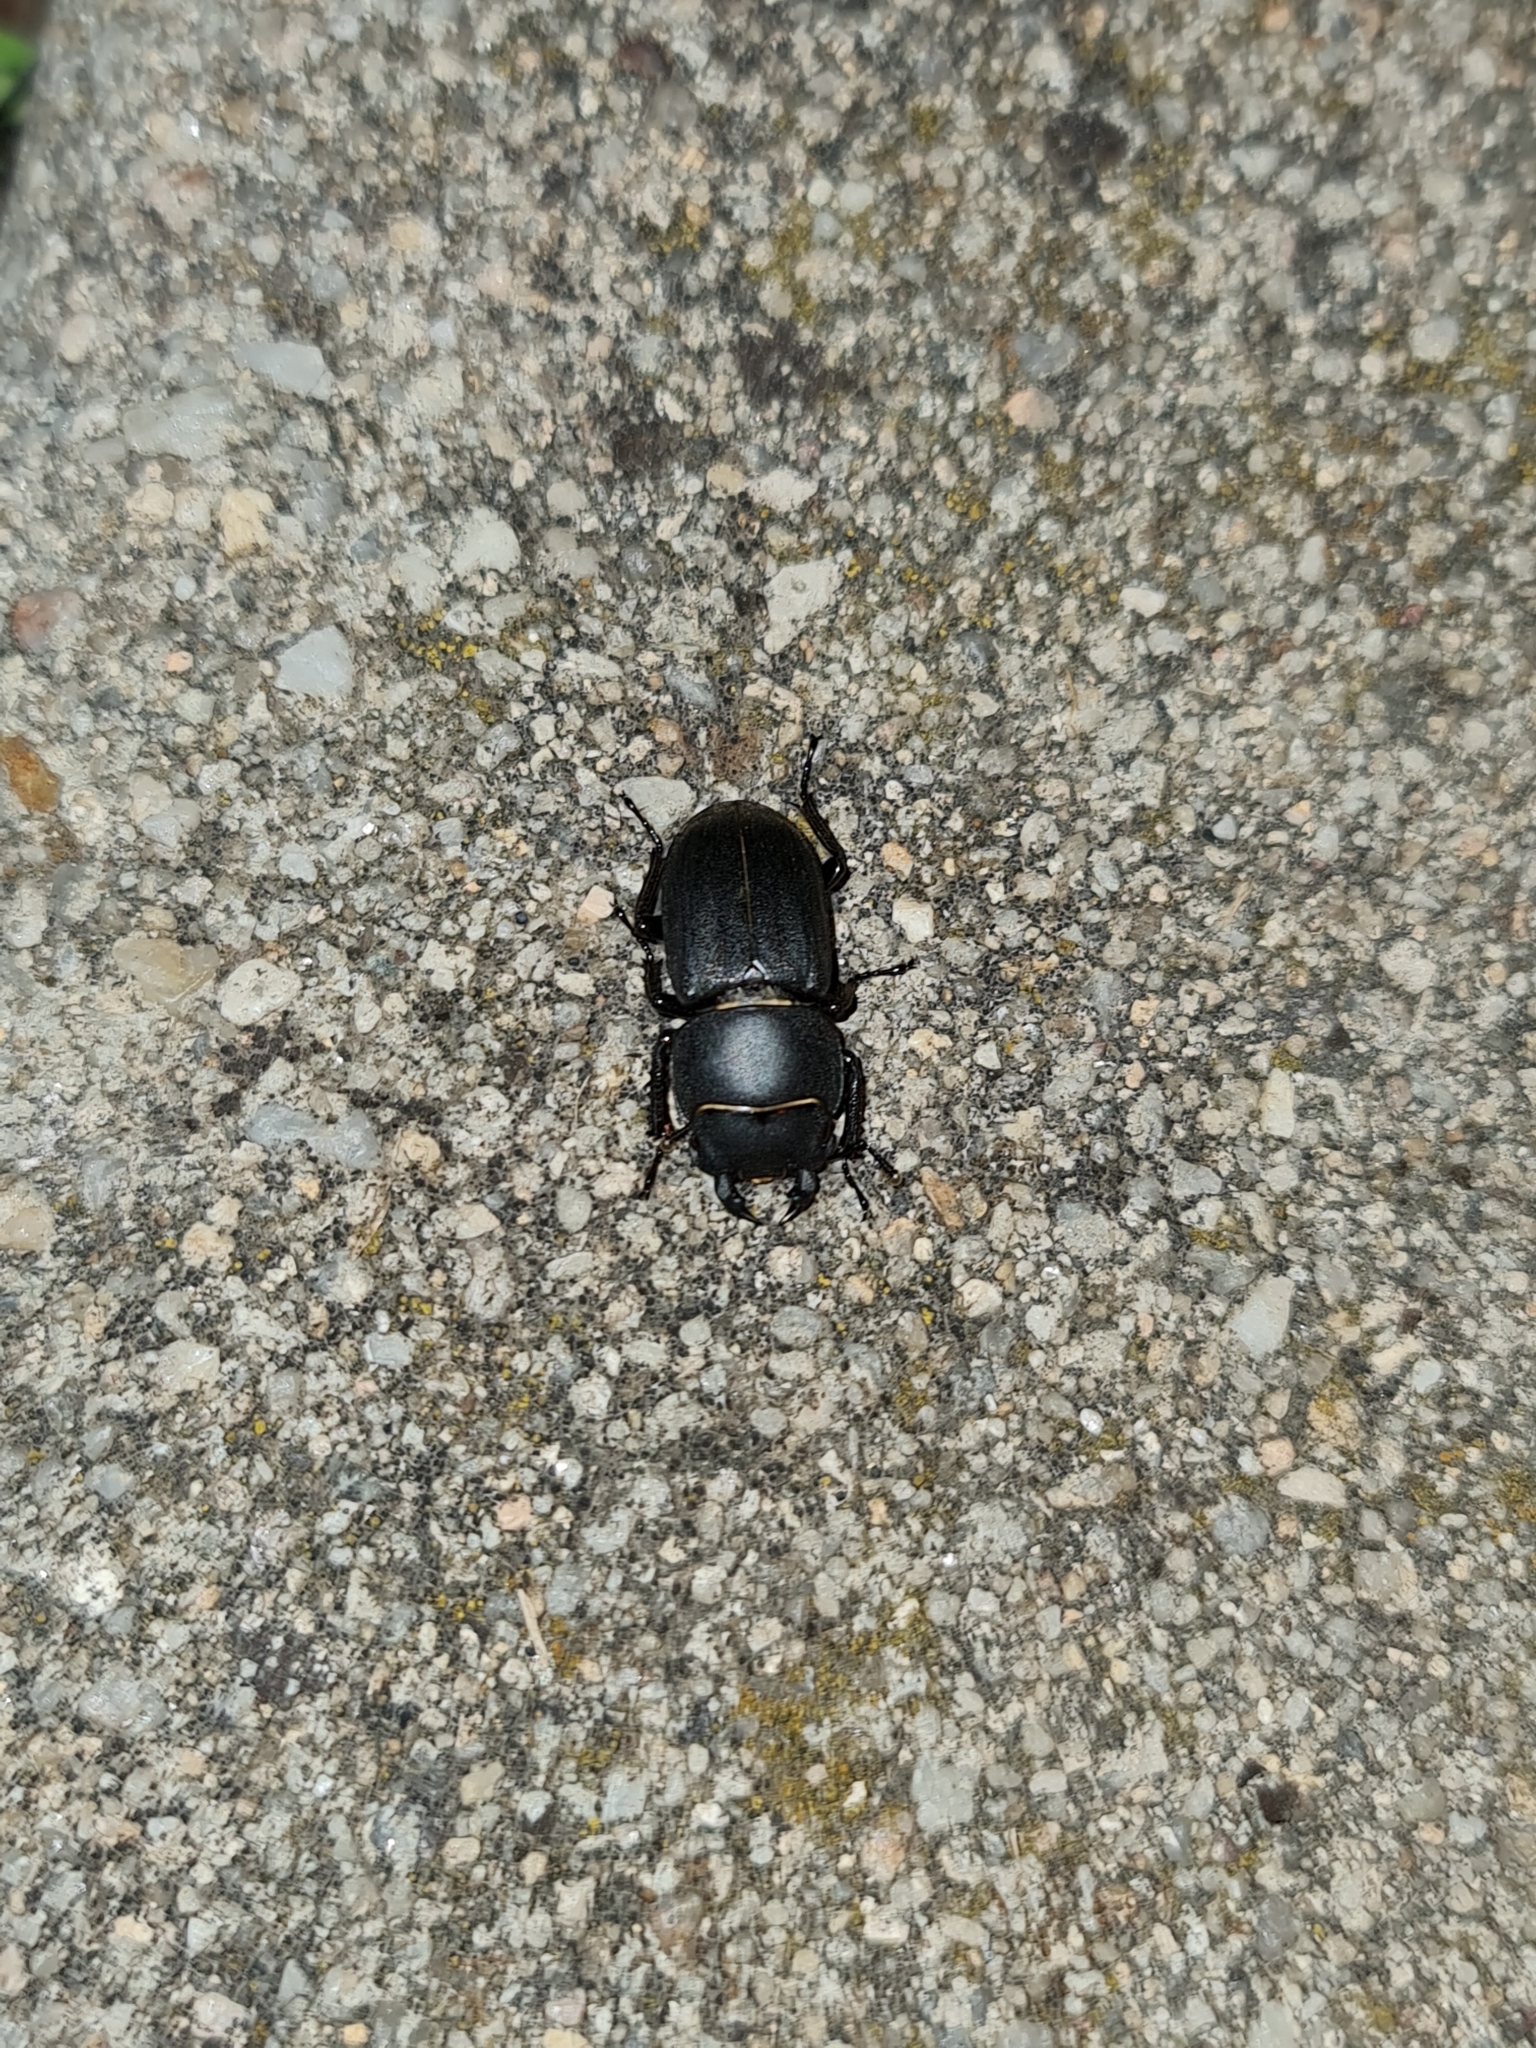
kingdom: Animalia
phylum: Arthropoda
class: Insecta
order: Coleoptera
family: Lucanidae
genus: Dorcus
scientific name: Dorcus parallelipipedus
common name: Lesser stag beetle
